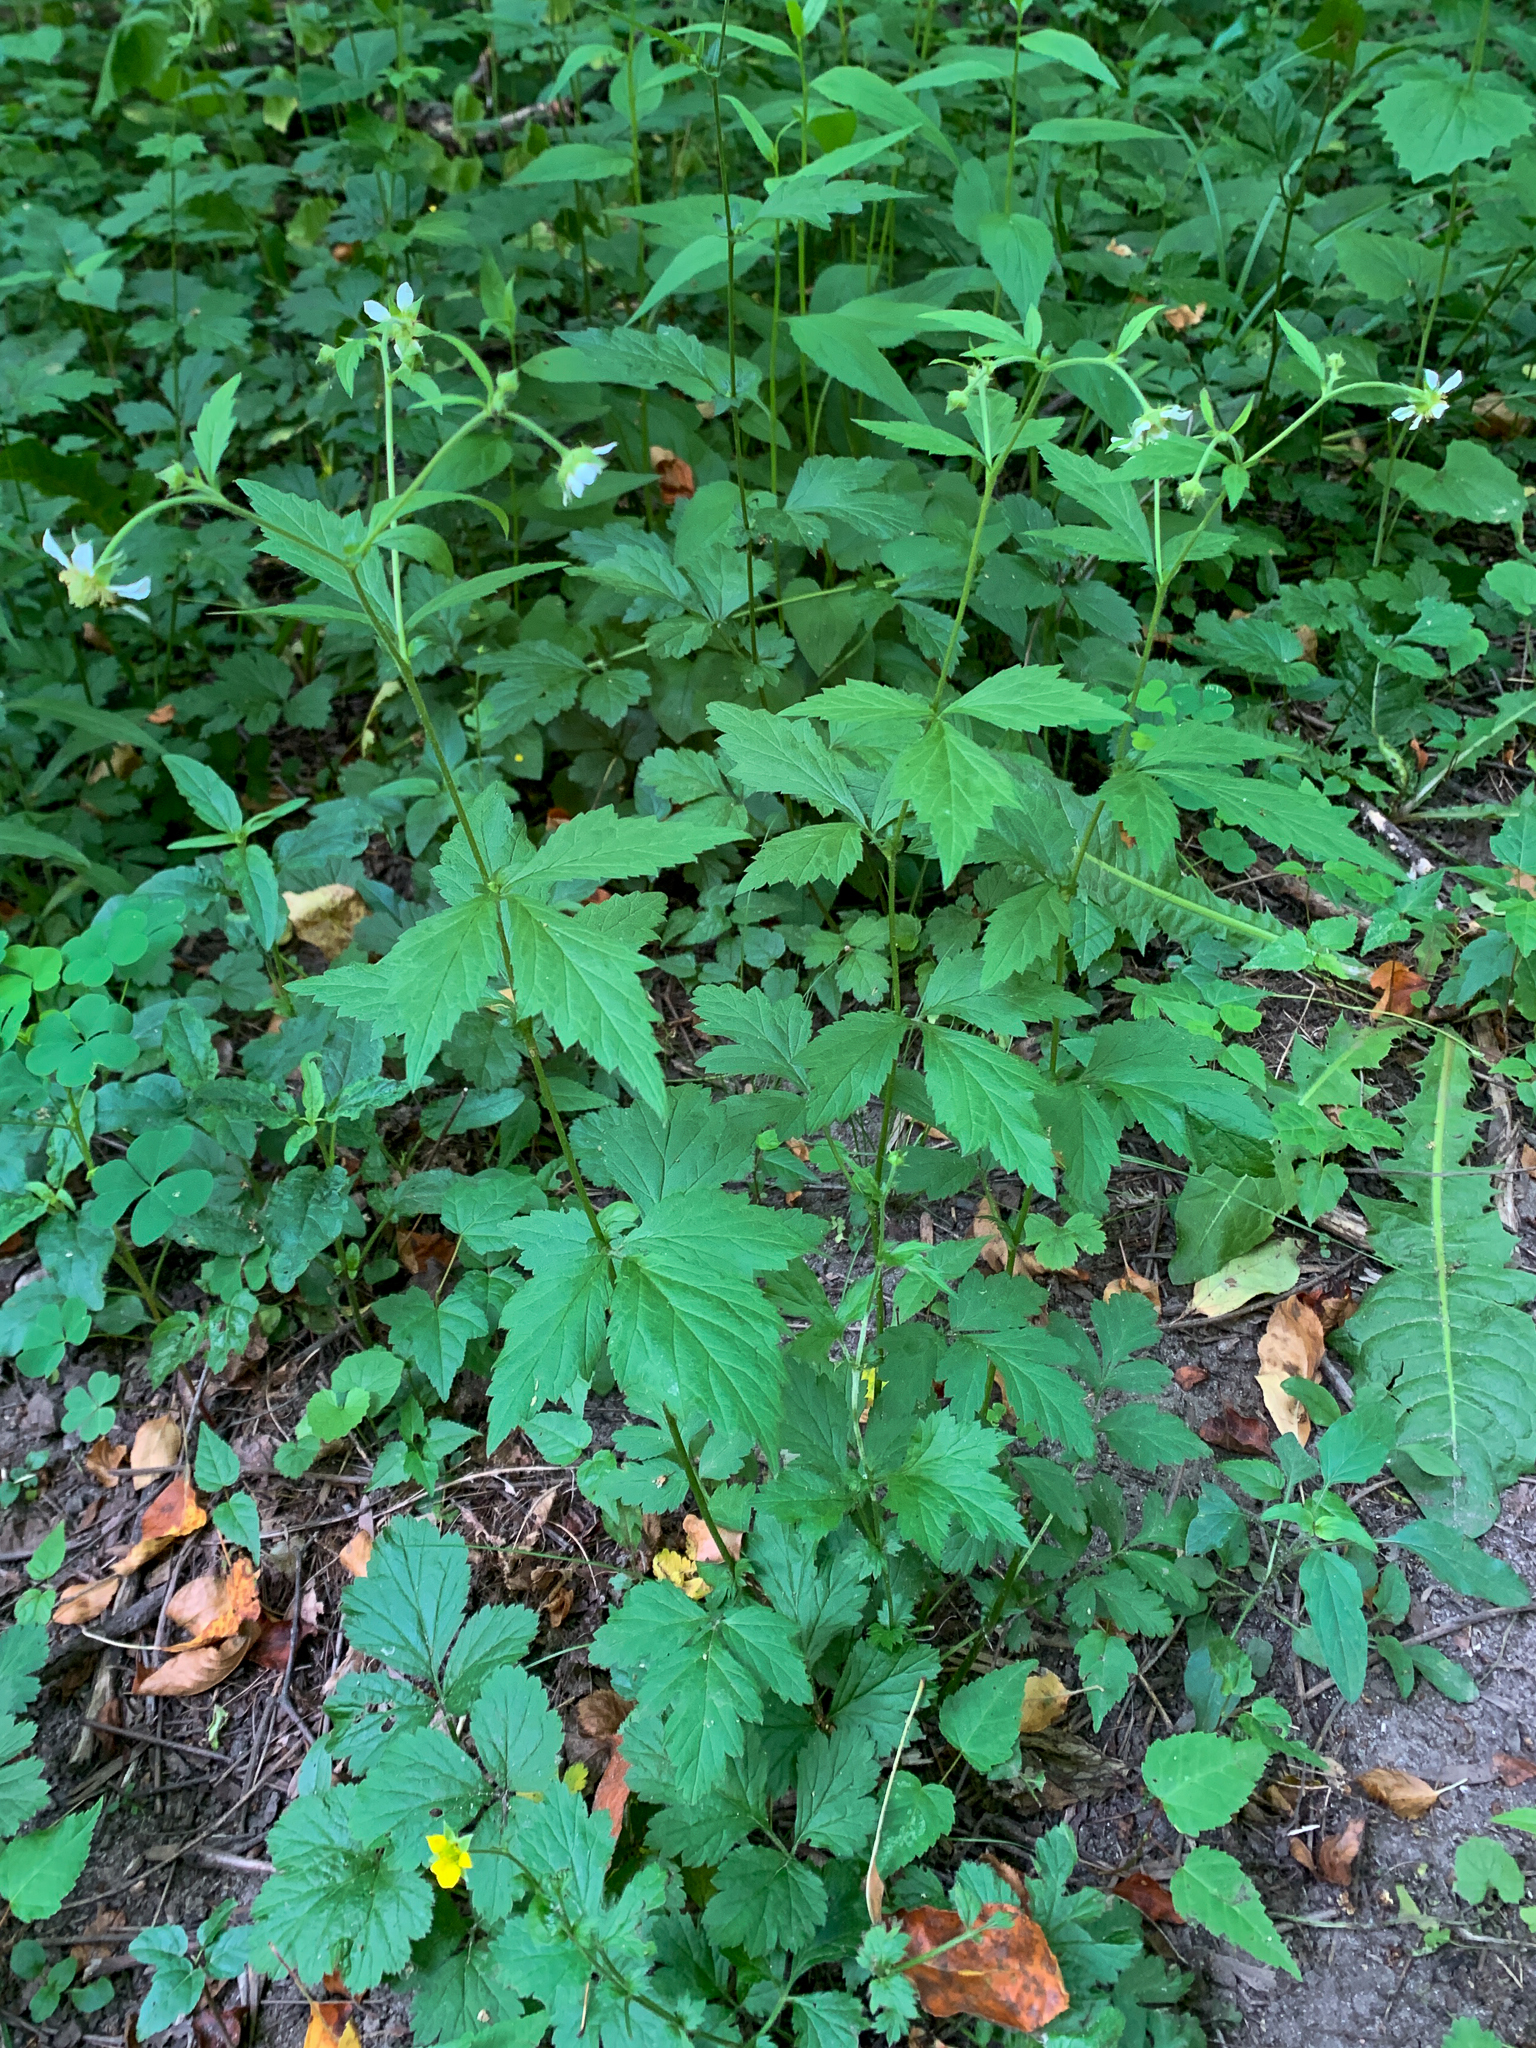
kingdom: Plantae
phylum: Tracheophyta
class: Magnoliopsida
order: Rosales
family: Rosaceae
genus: Geum
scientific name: Geum canadense
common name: White avens
